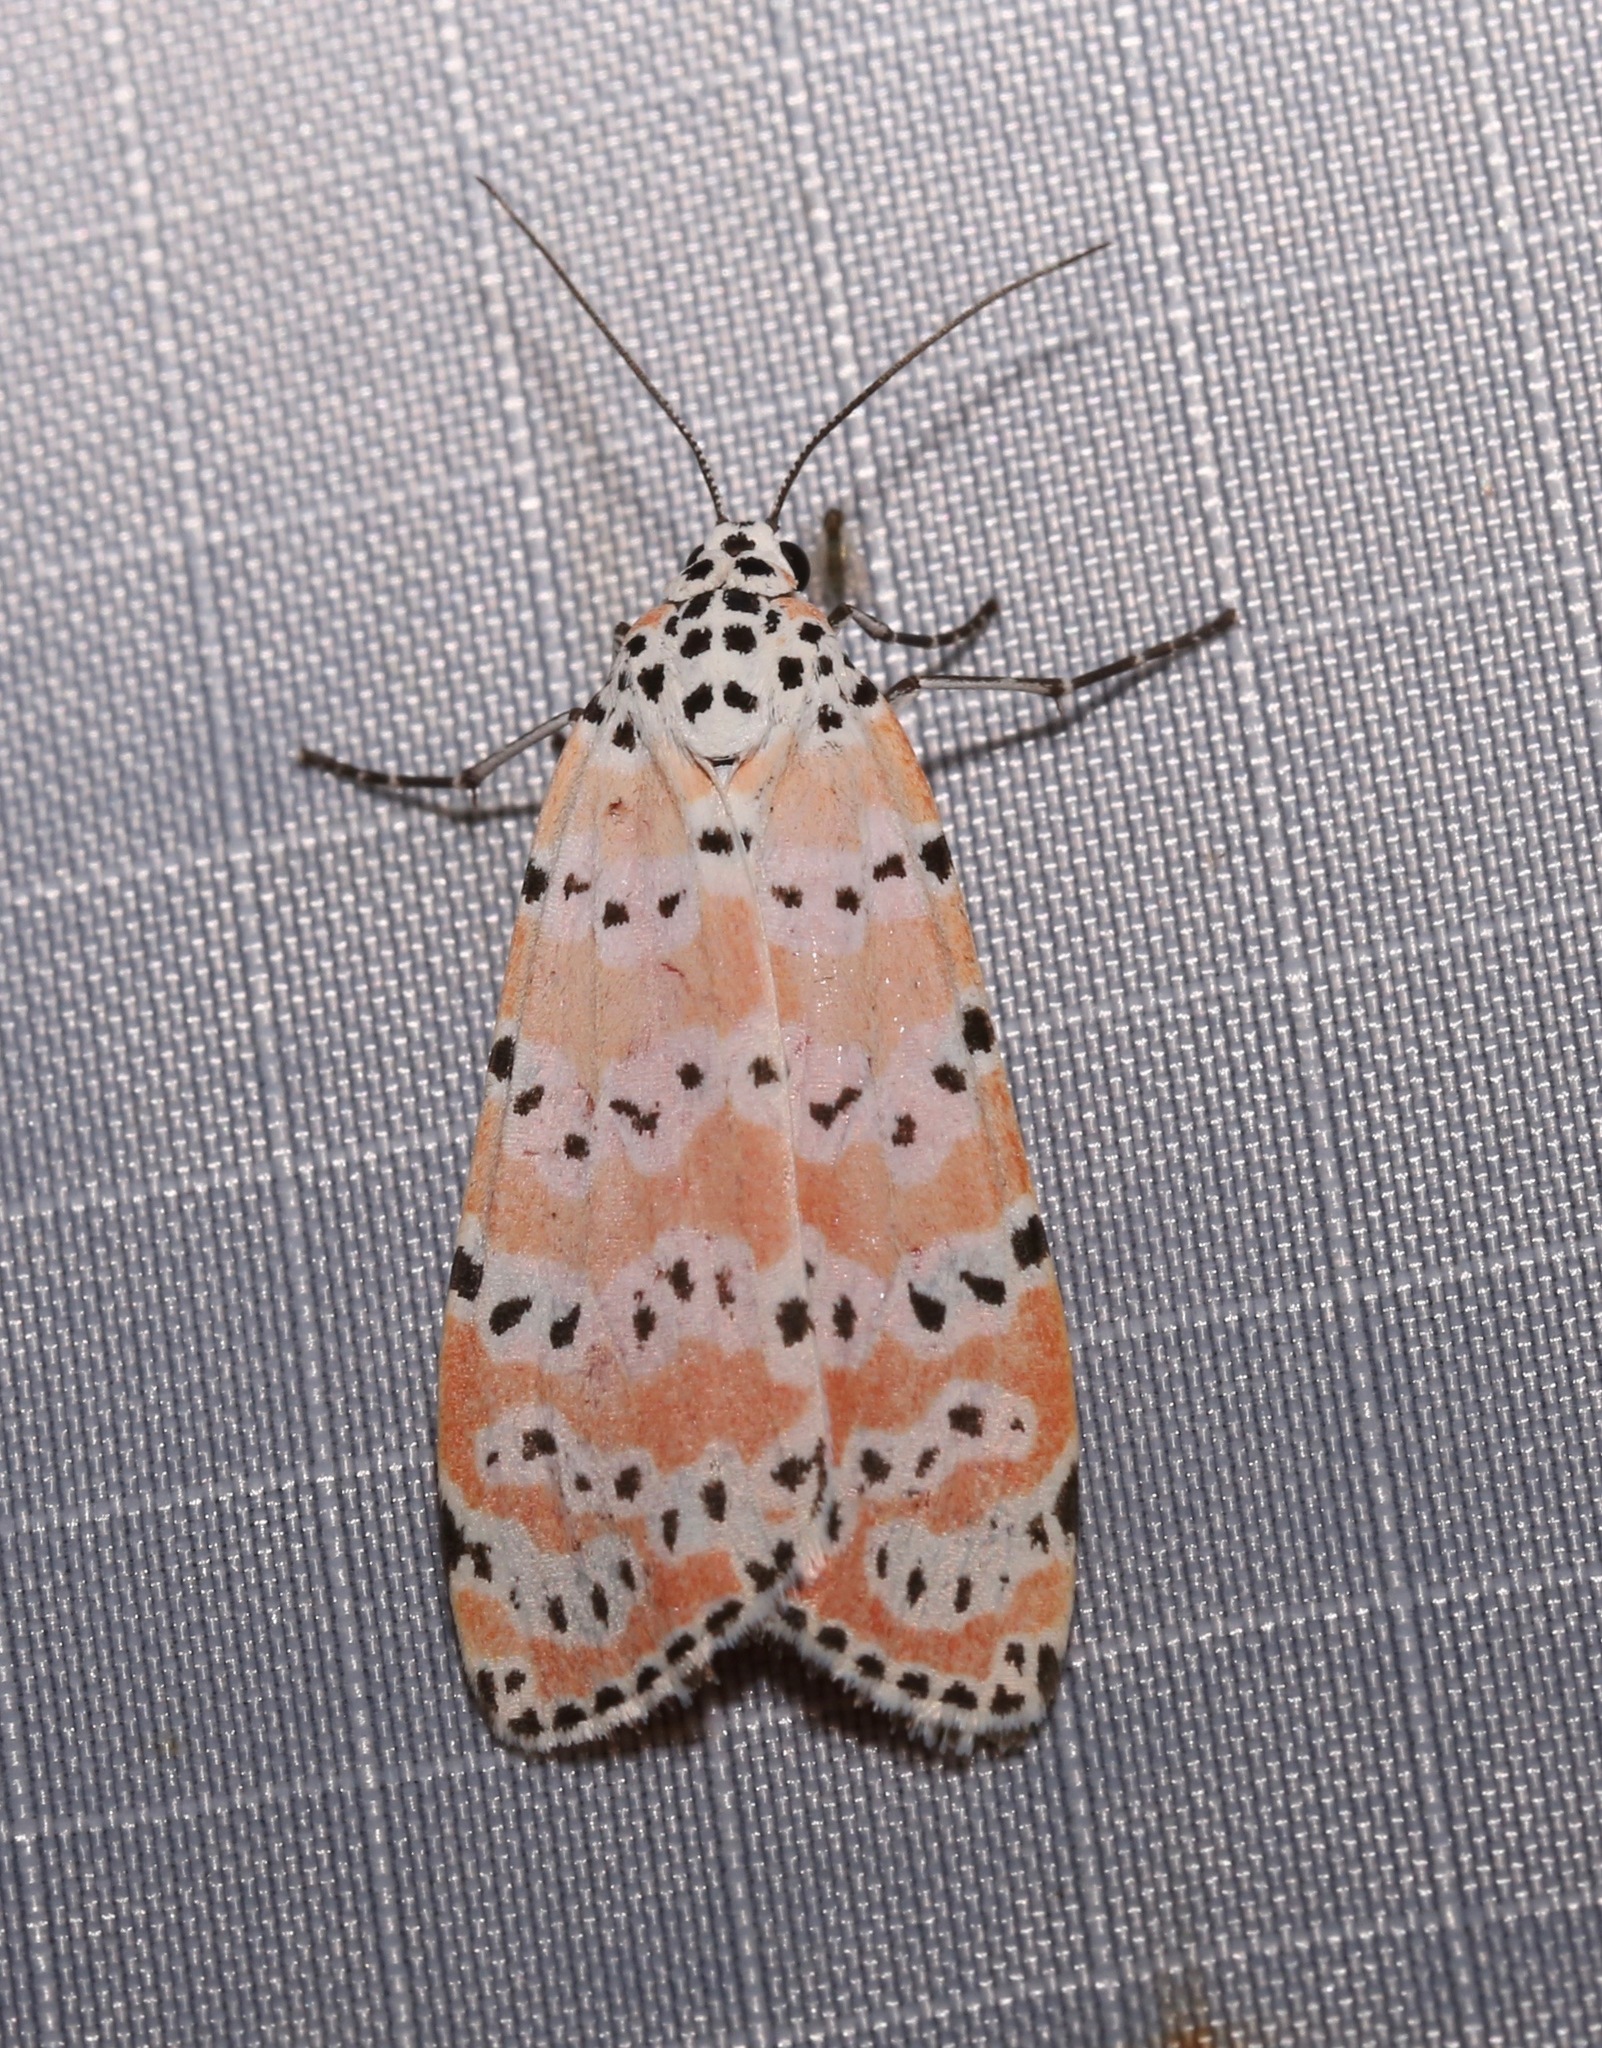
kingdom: Animalia
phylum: Arthropoda
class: Insecta
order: Lepidoptera
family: Erebidae
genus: Utetheisa
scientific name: Utetheisa ornatrix
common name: Beautiful utetheisa
